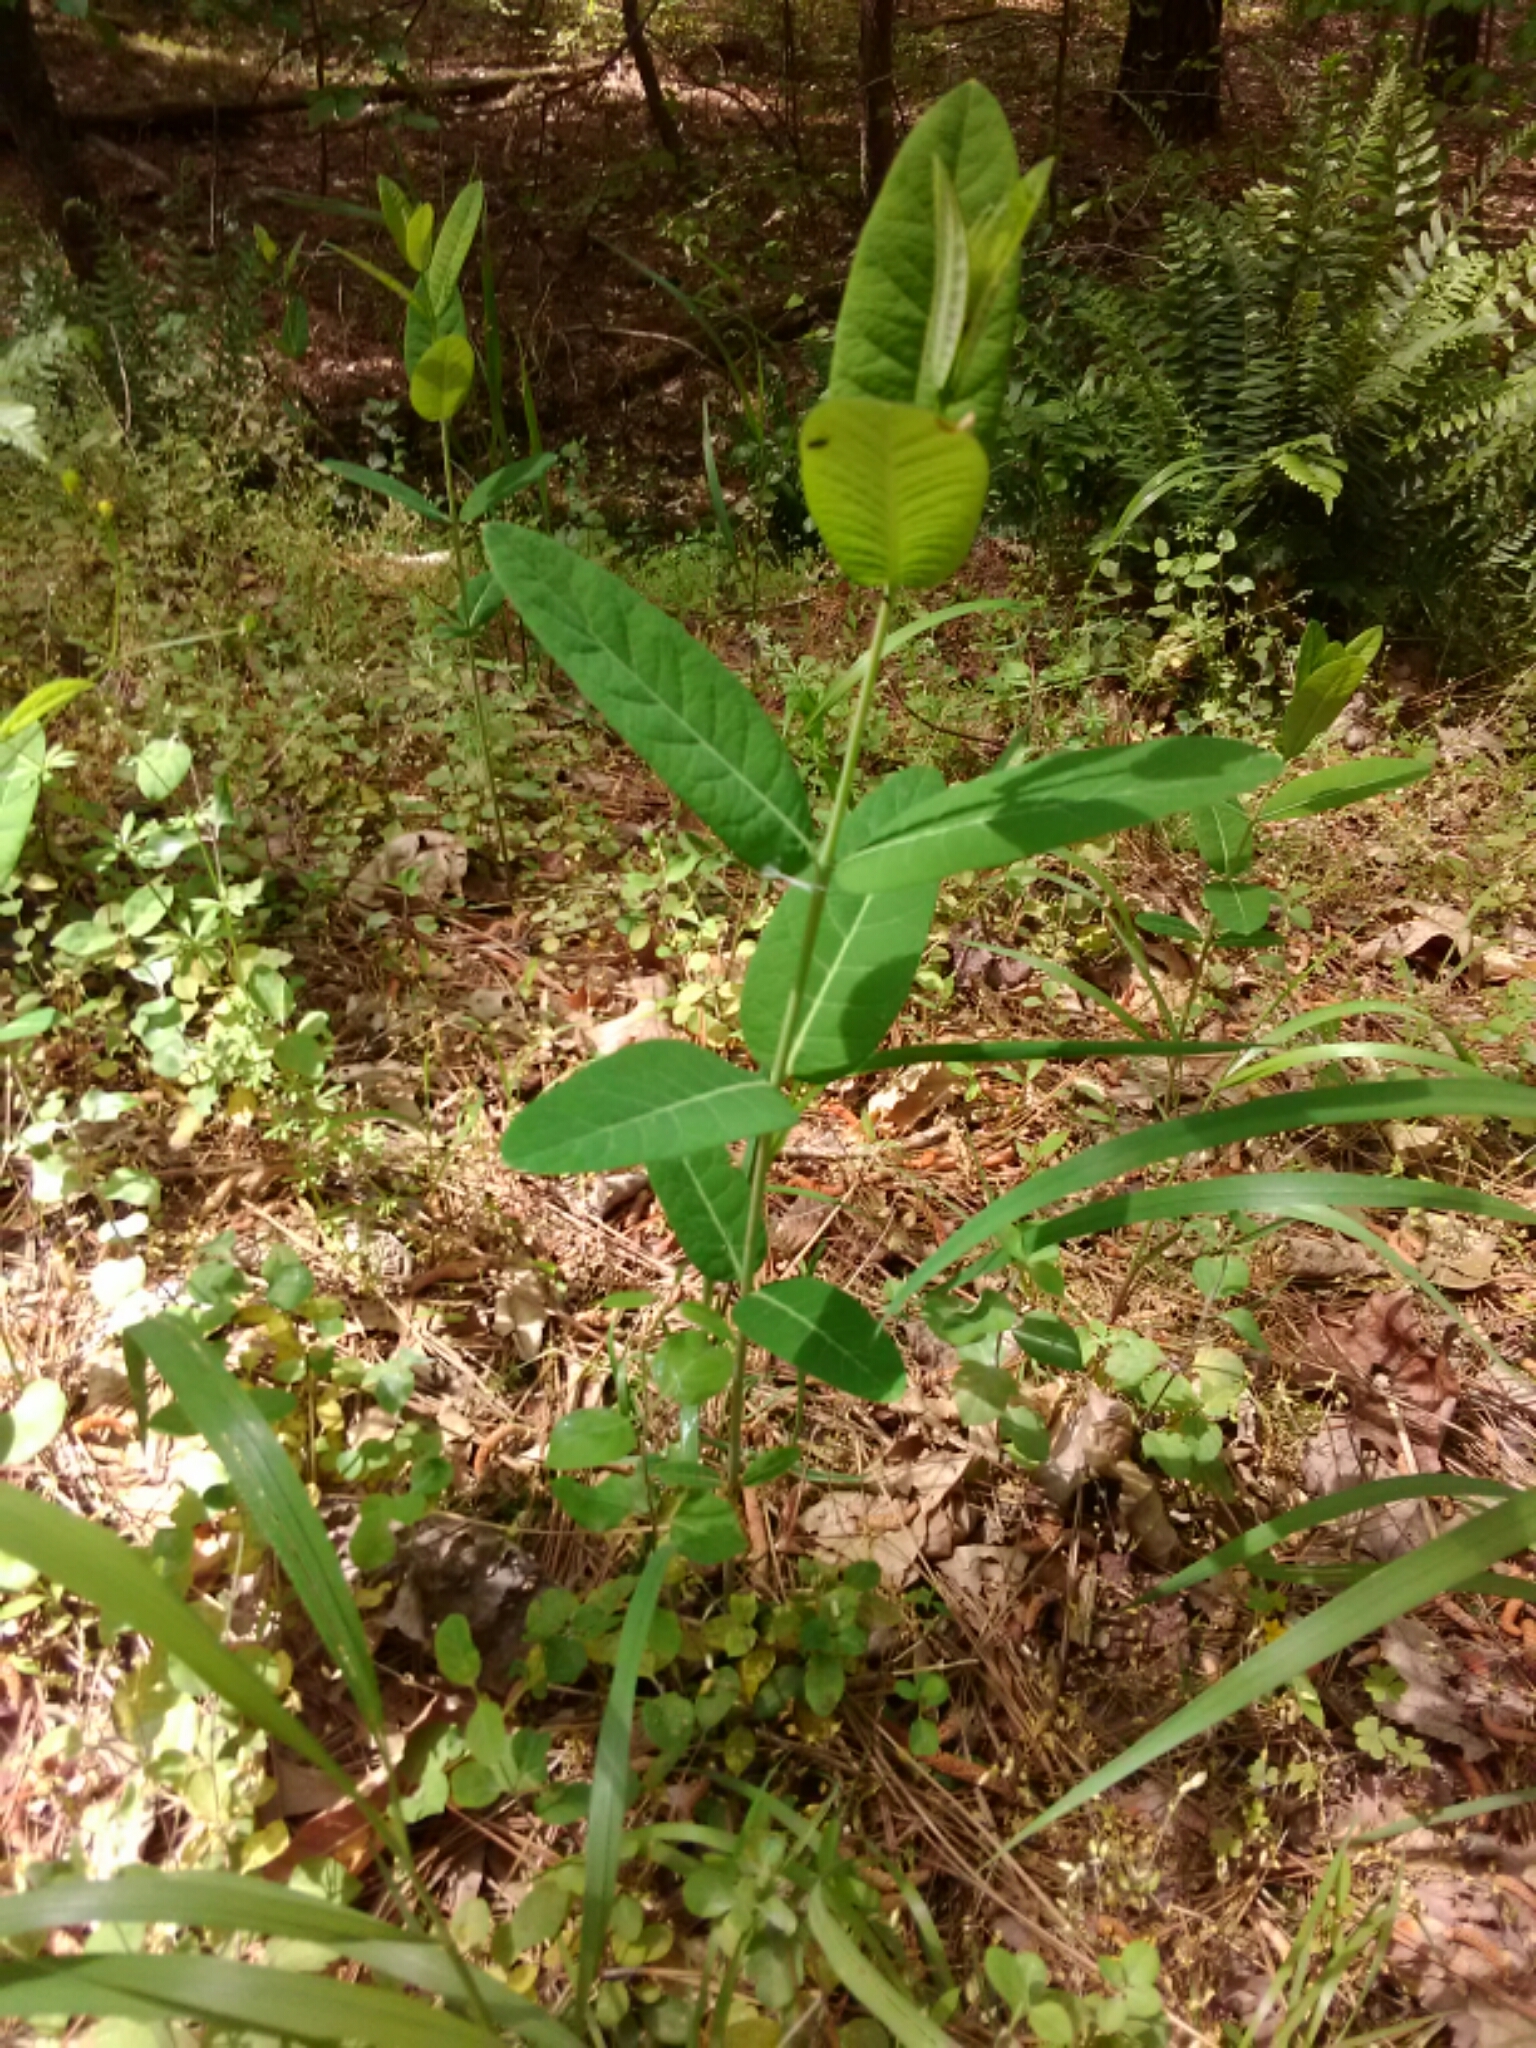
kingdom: Plantae
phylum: Tracheophyta
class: Magnoliopsida
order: Gentianales
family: Apocynaceae
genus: Apocynum
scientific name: Apocynum cannabinum
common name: Hemp dogbane
